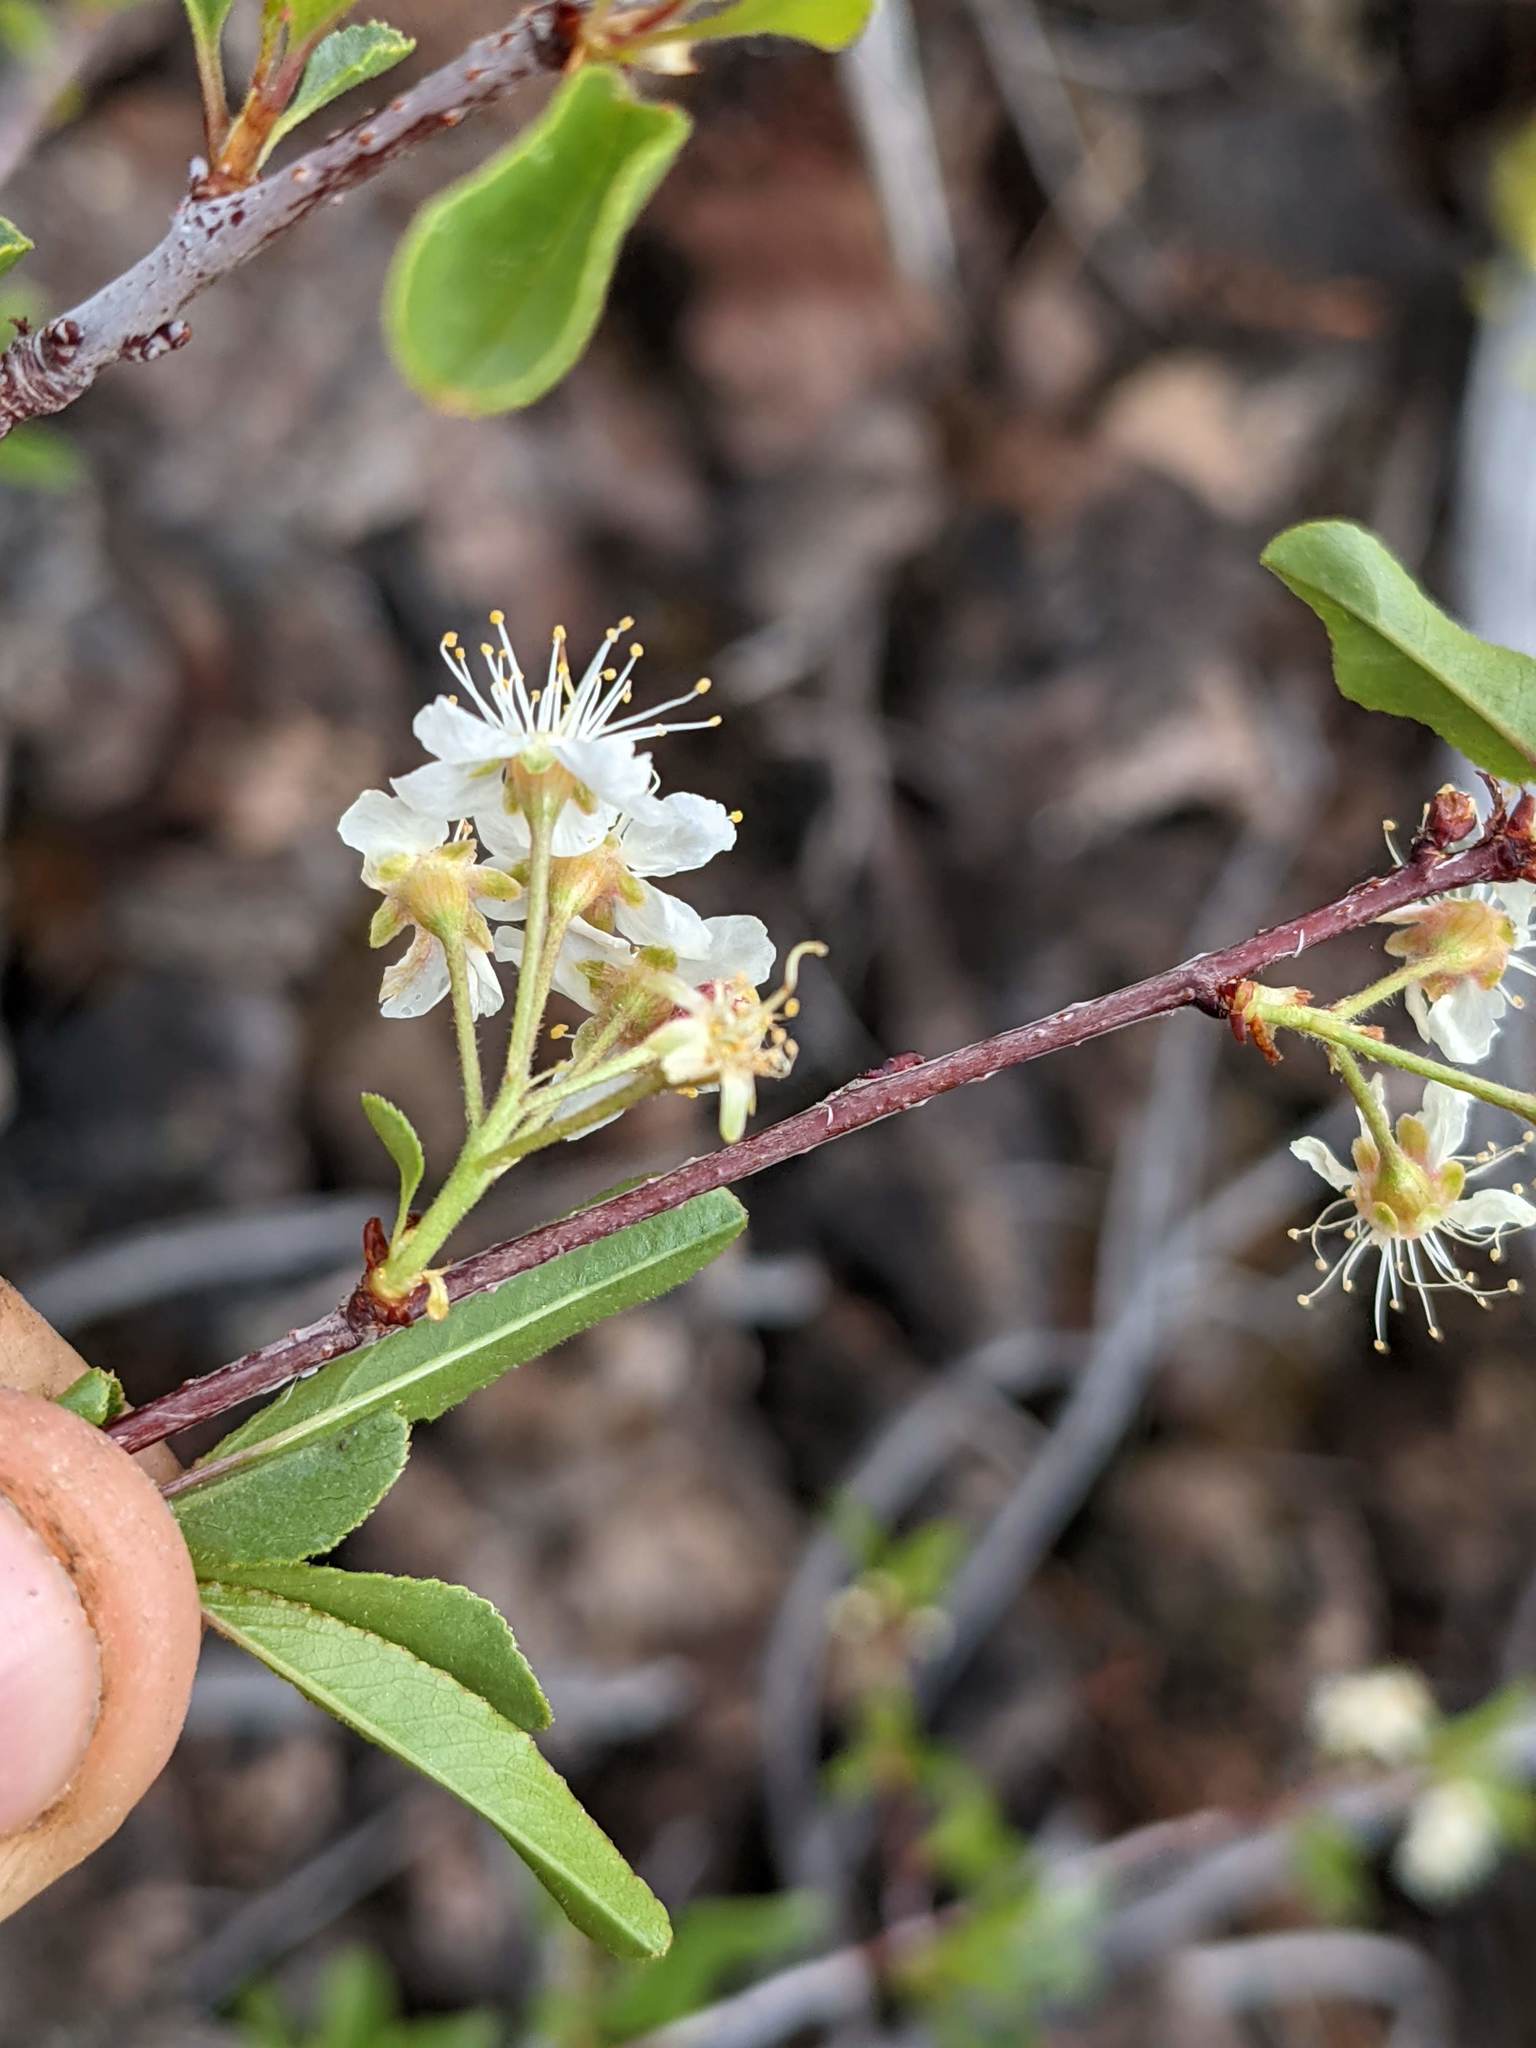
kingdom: Plantae
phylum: Tracheophyta
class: Magnoliopsida
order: Rosales
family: Rosaceae
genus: Prunus
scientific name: Prunus emarginata
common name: Bitter cherry
